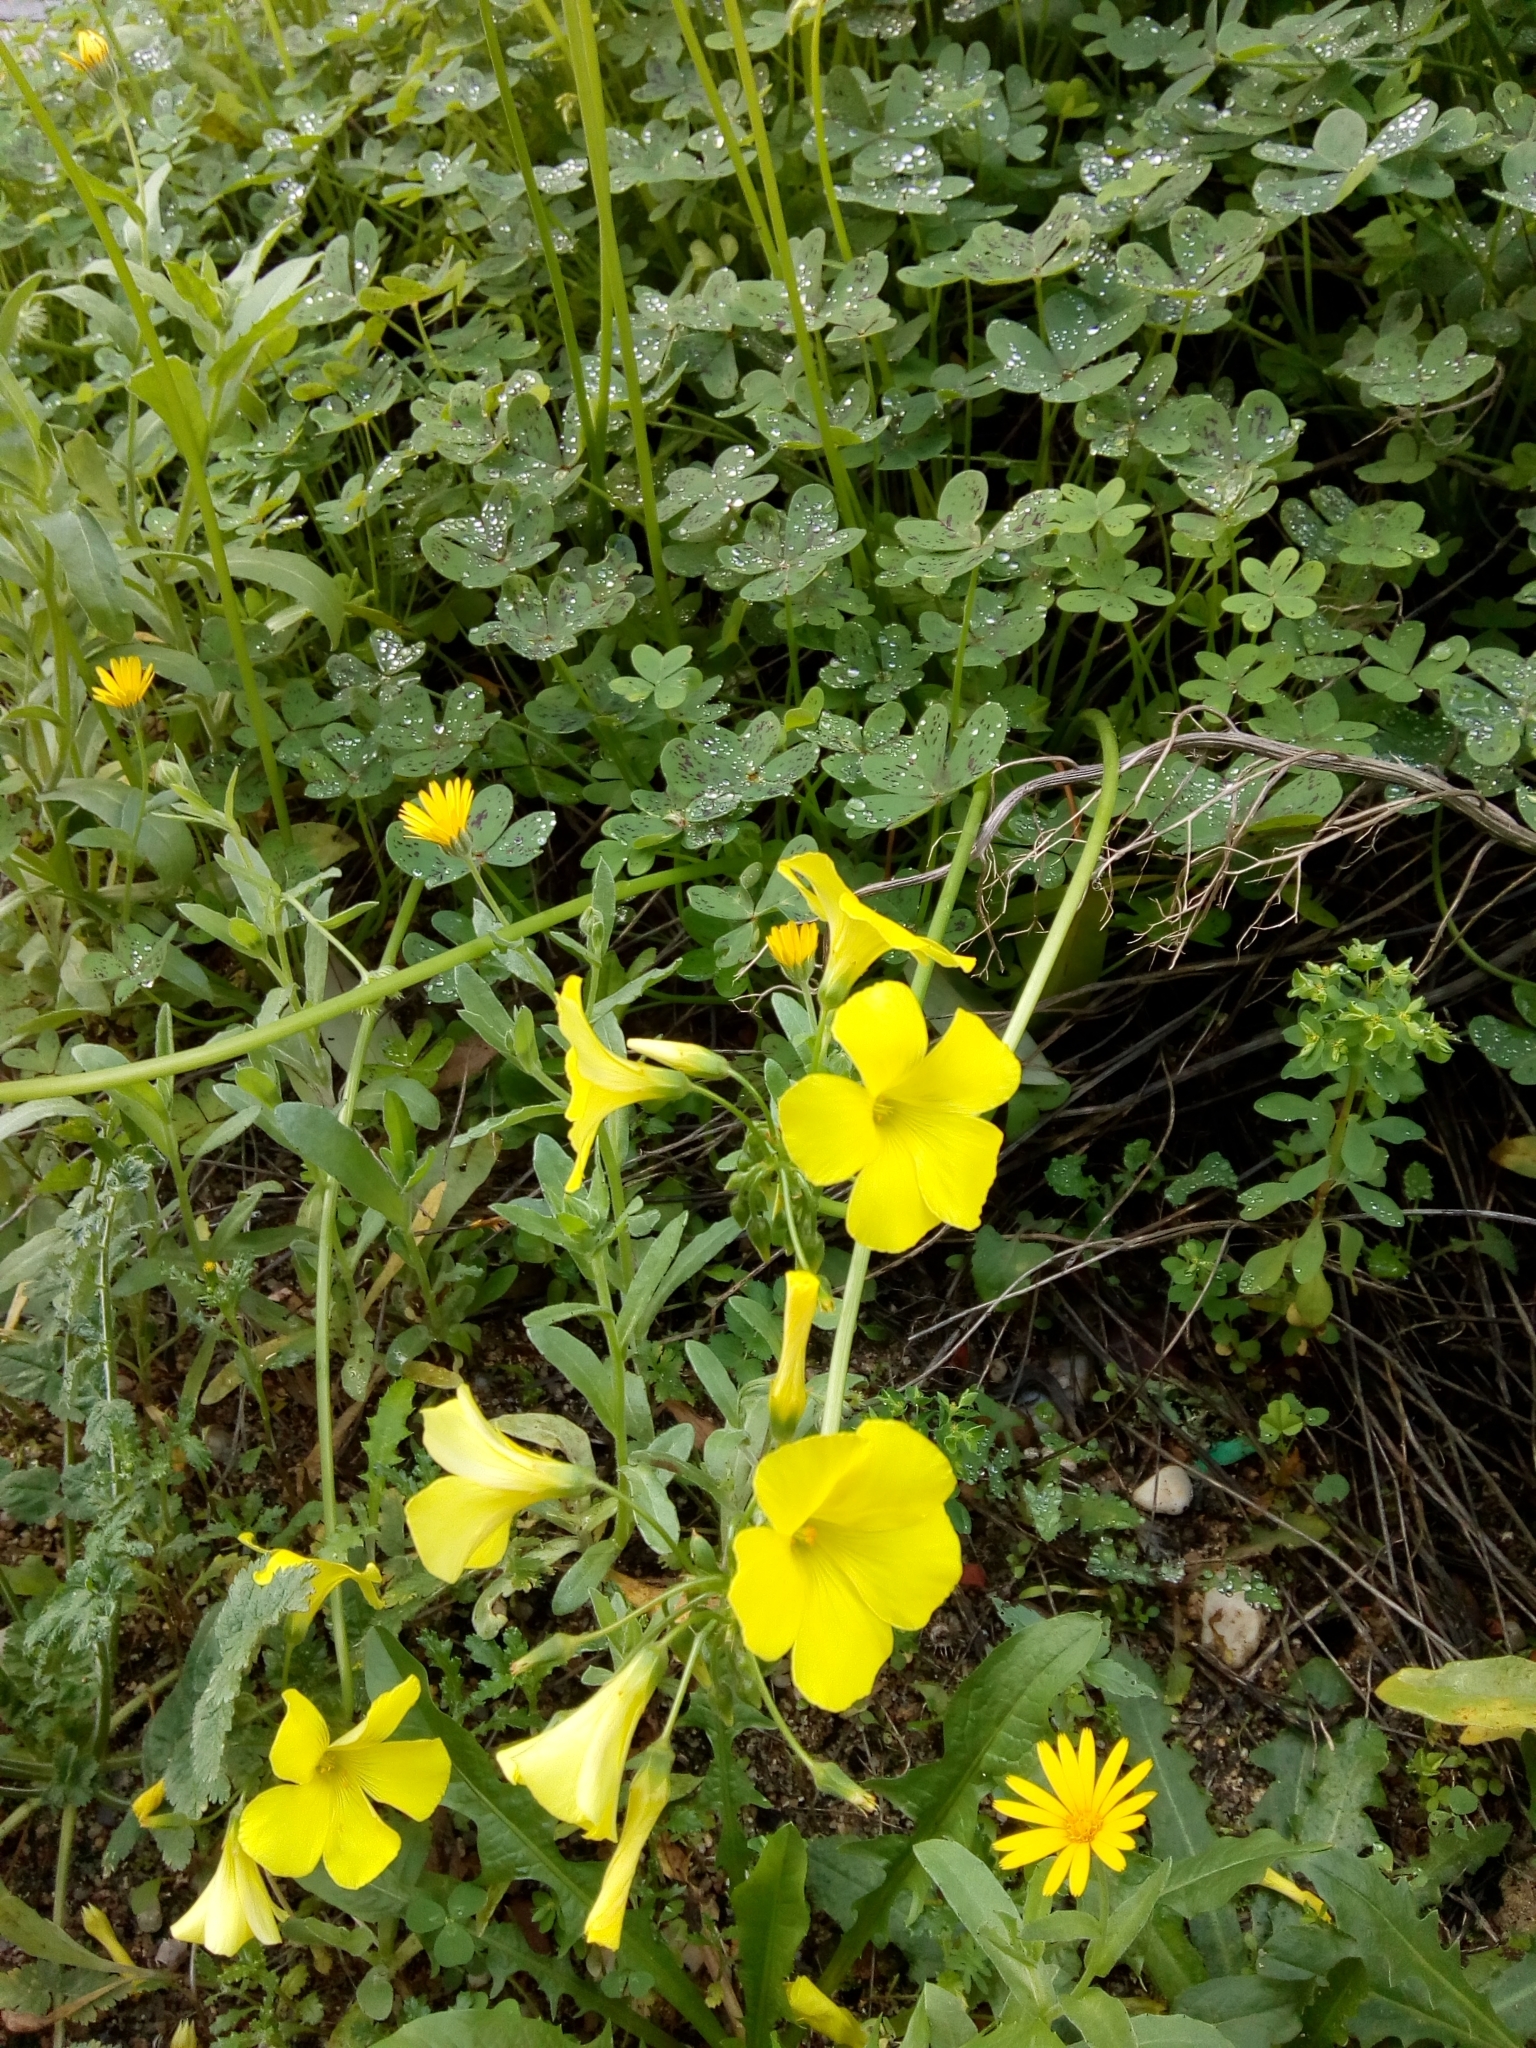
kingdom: Plantae
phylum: Tracheophyta
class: Magnoliopsida
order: Oxalidales
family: Oxalidaceae
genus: Oxalis
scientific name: Oxalis pes-caprae
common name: Bermuda-buttercup
